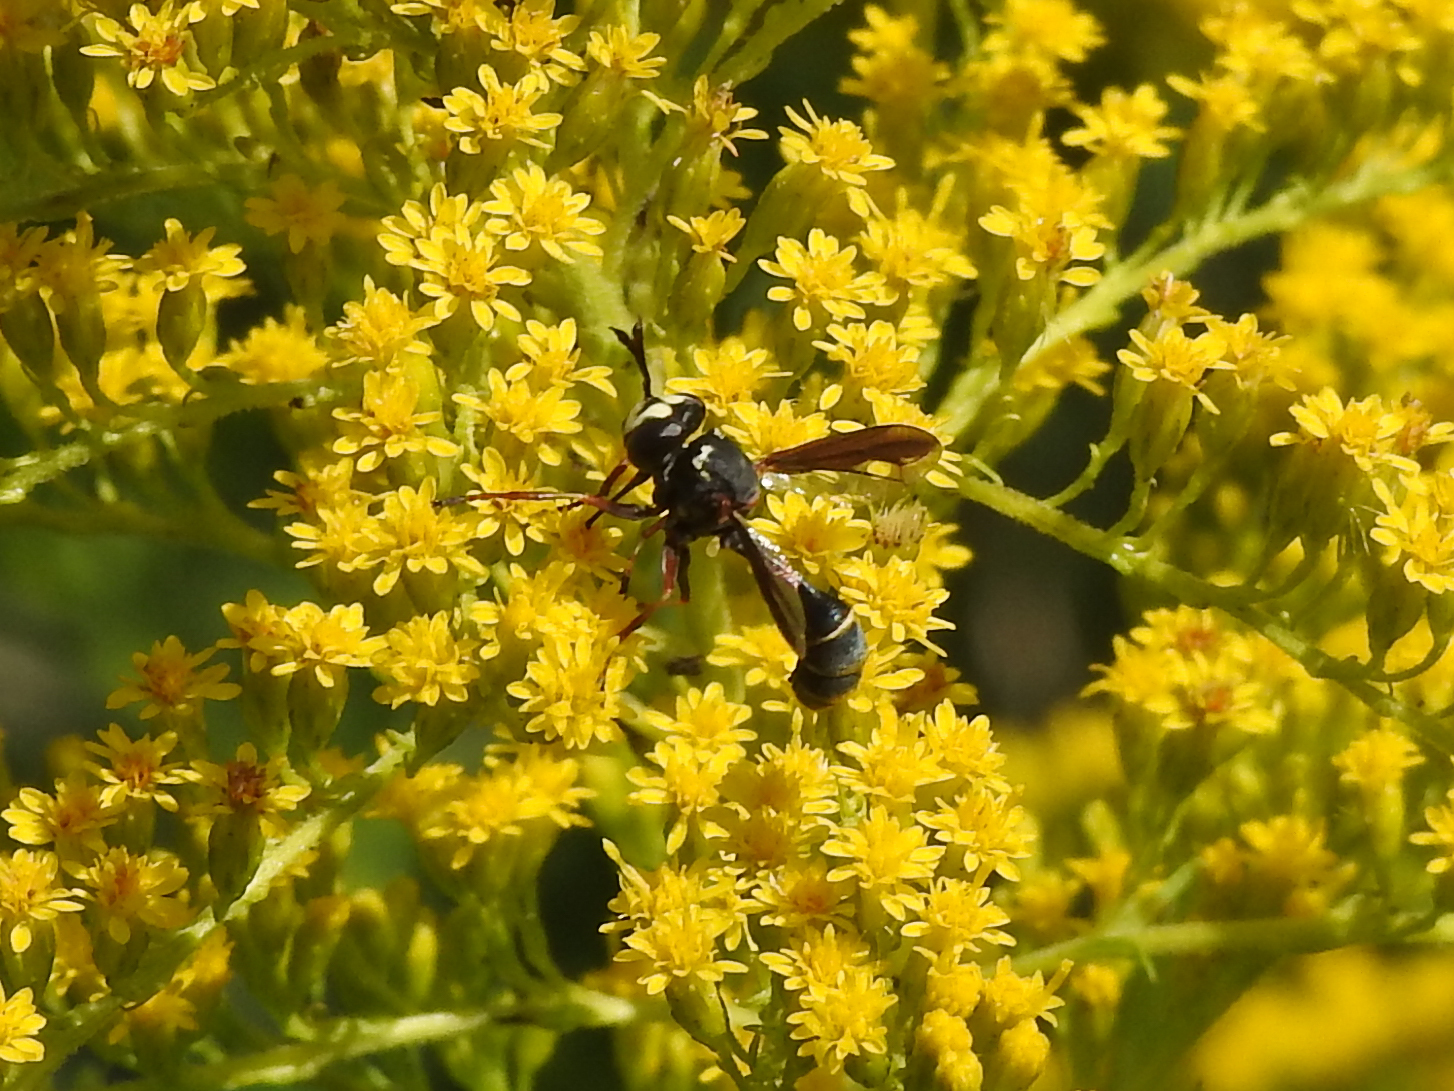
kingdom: Animalia
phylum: Arthropoda
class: Insecta
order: Diptera
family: Conopidae
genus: Physocephala
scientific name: Physocephala furcillata
